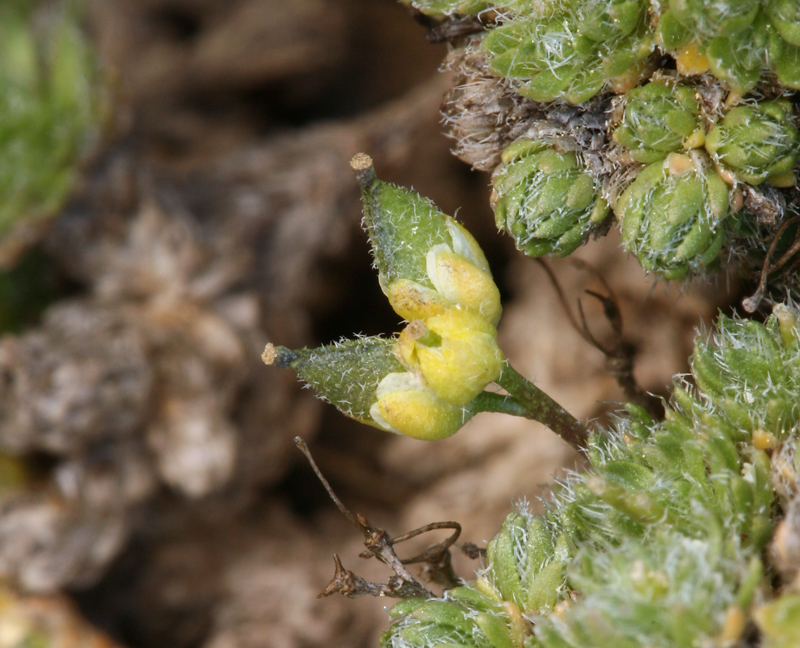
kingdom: Plantae
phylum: Tracheophyta
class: Magnoliopsida
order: Brassicales
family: Brassicaceae
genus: Draba
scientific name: Draba densifolia
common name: Nuttall's draba
